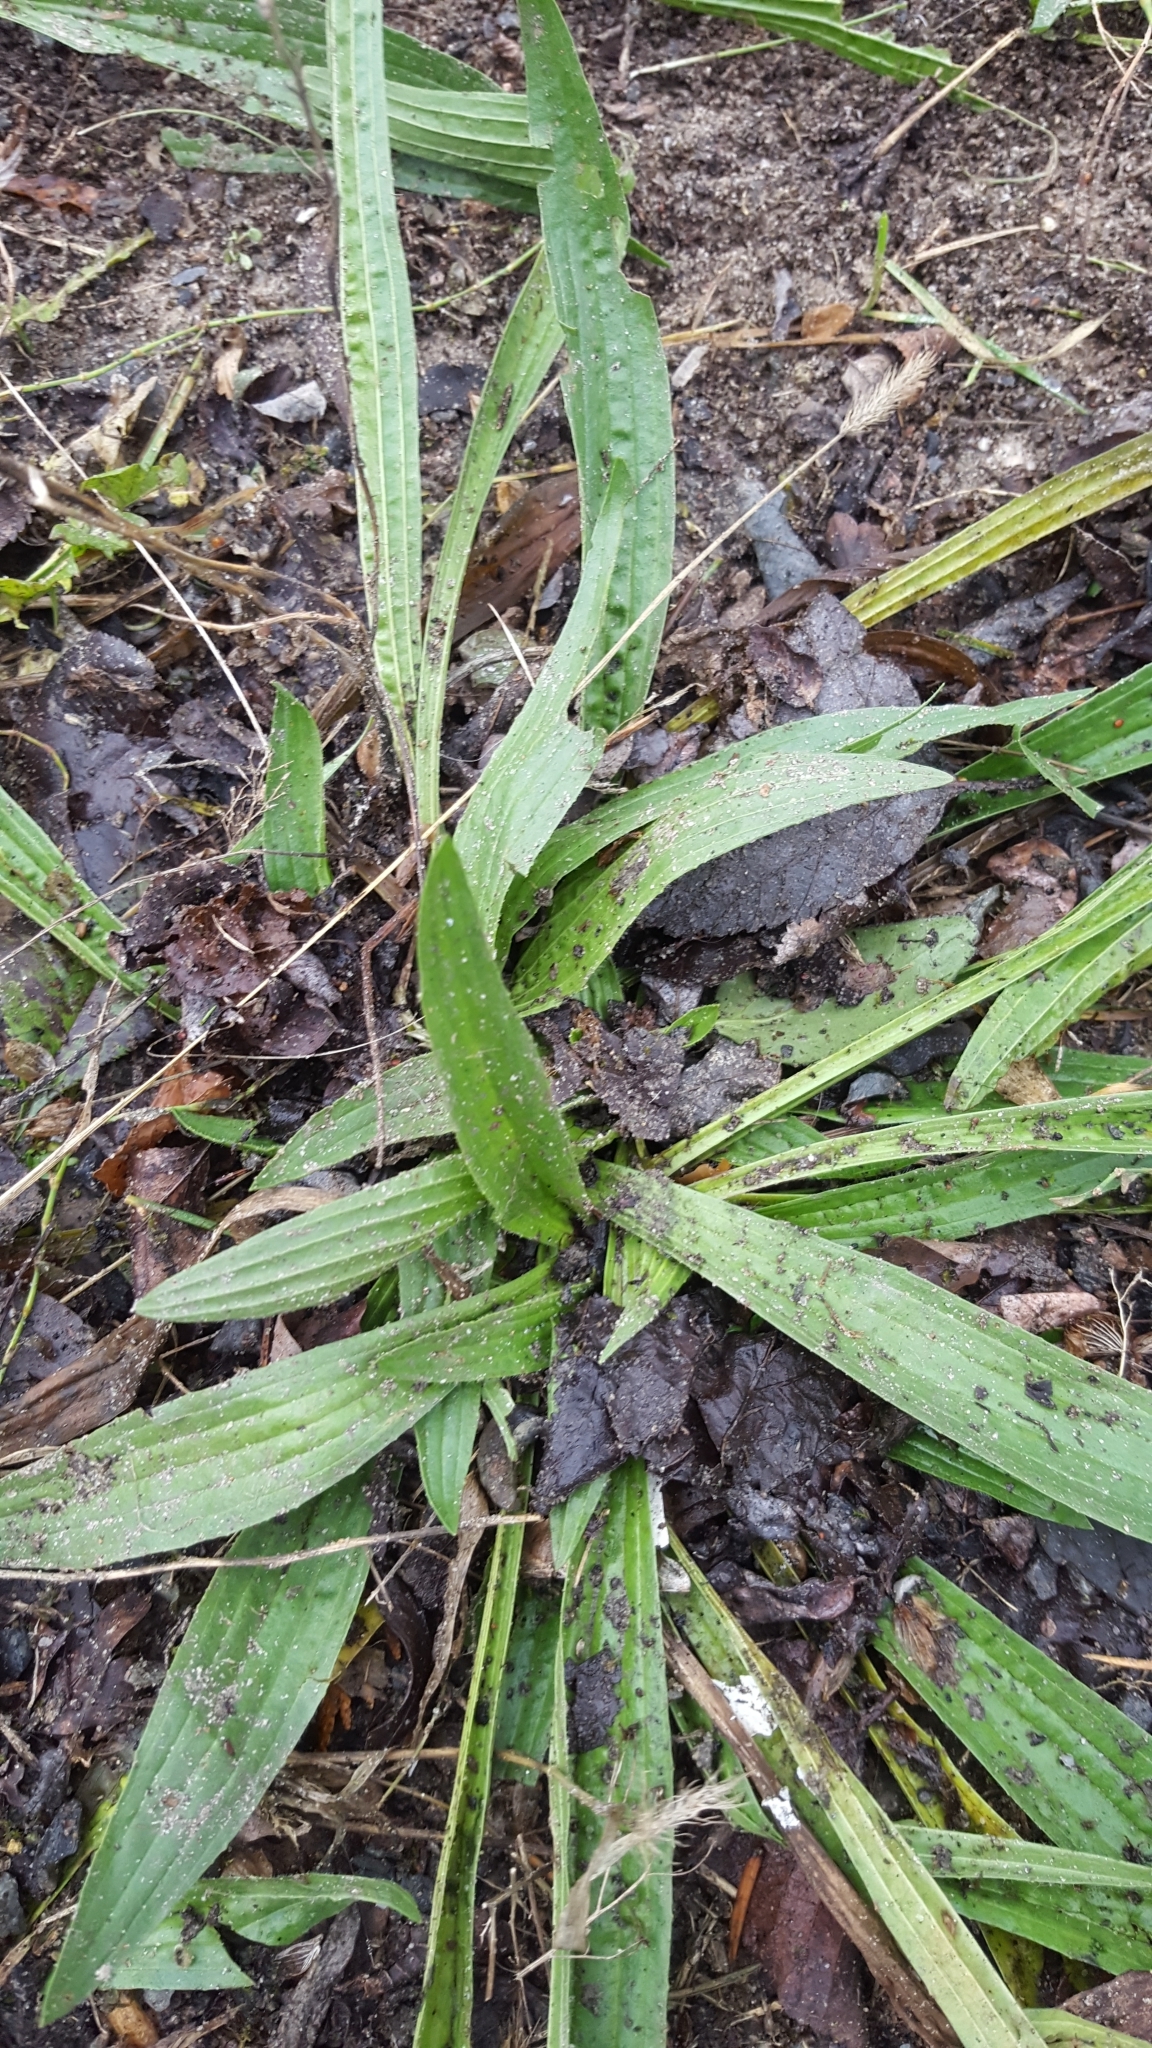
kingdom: Plantae
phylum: Tracheophyta
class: Magnoliopsida
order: Lamiales
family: Plantaginaceae
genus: Plantago
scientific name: Plantago lanceolata
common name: Ribwort plantain
